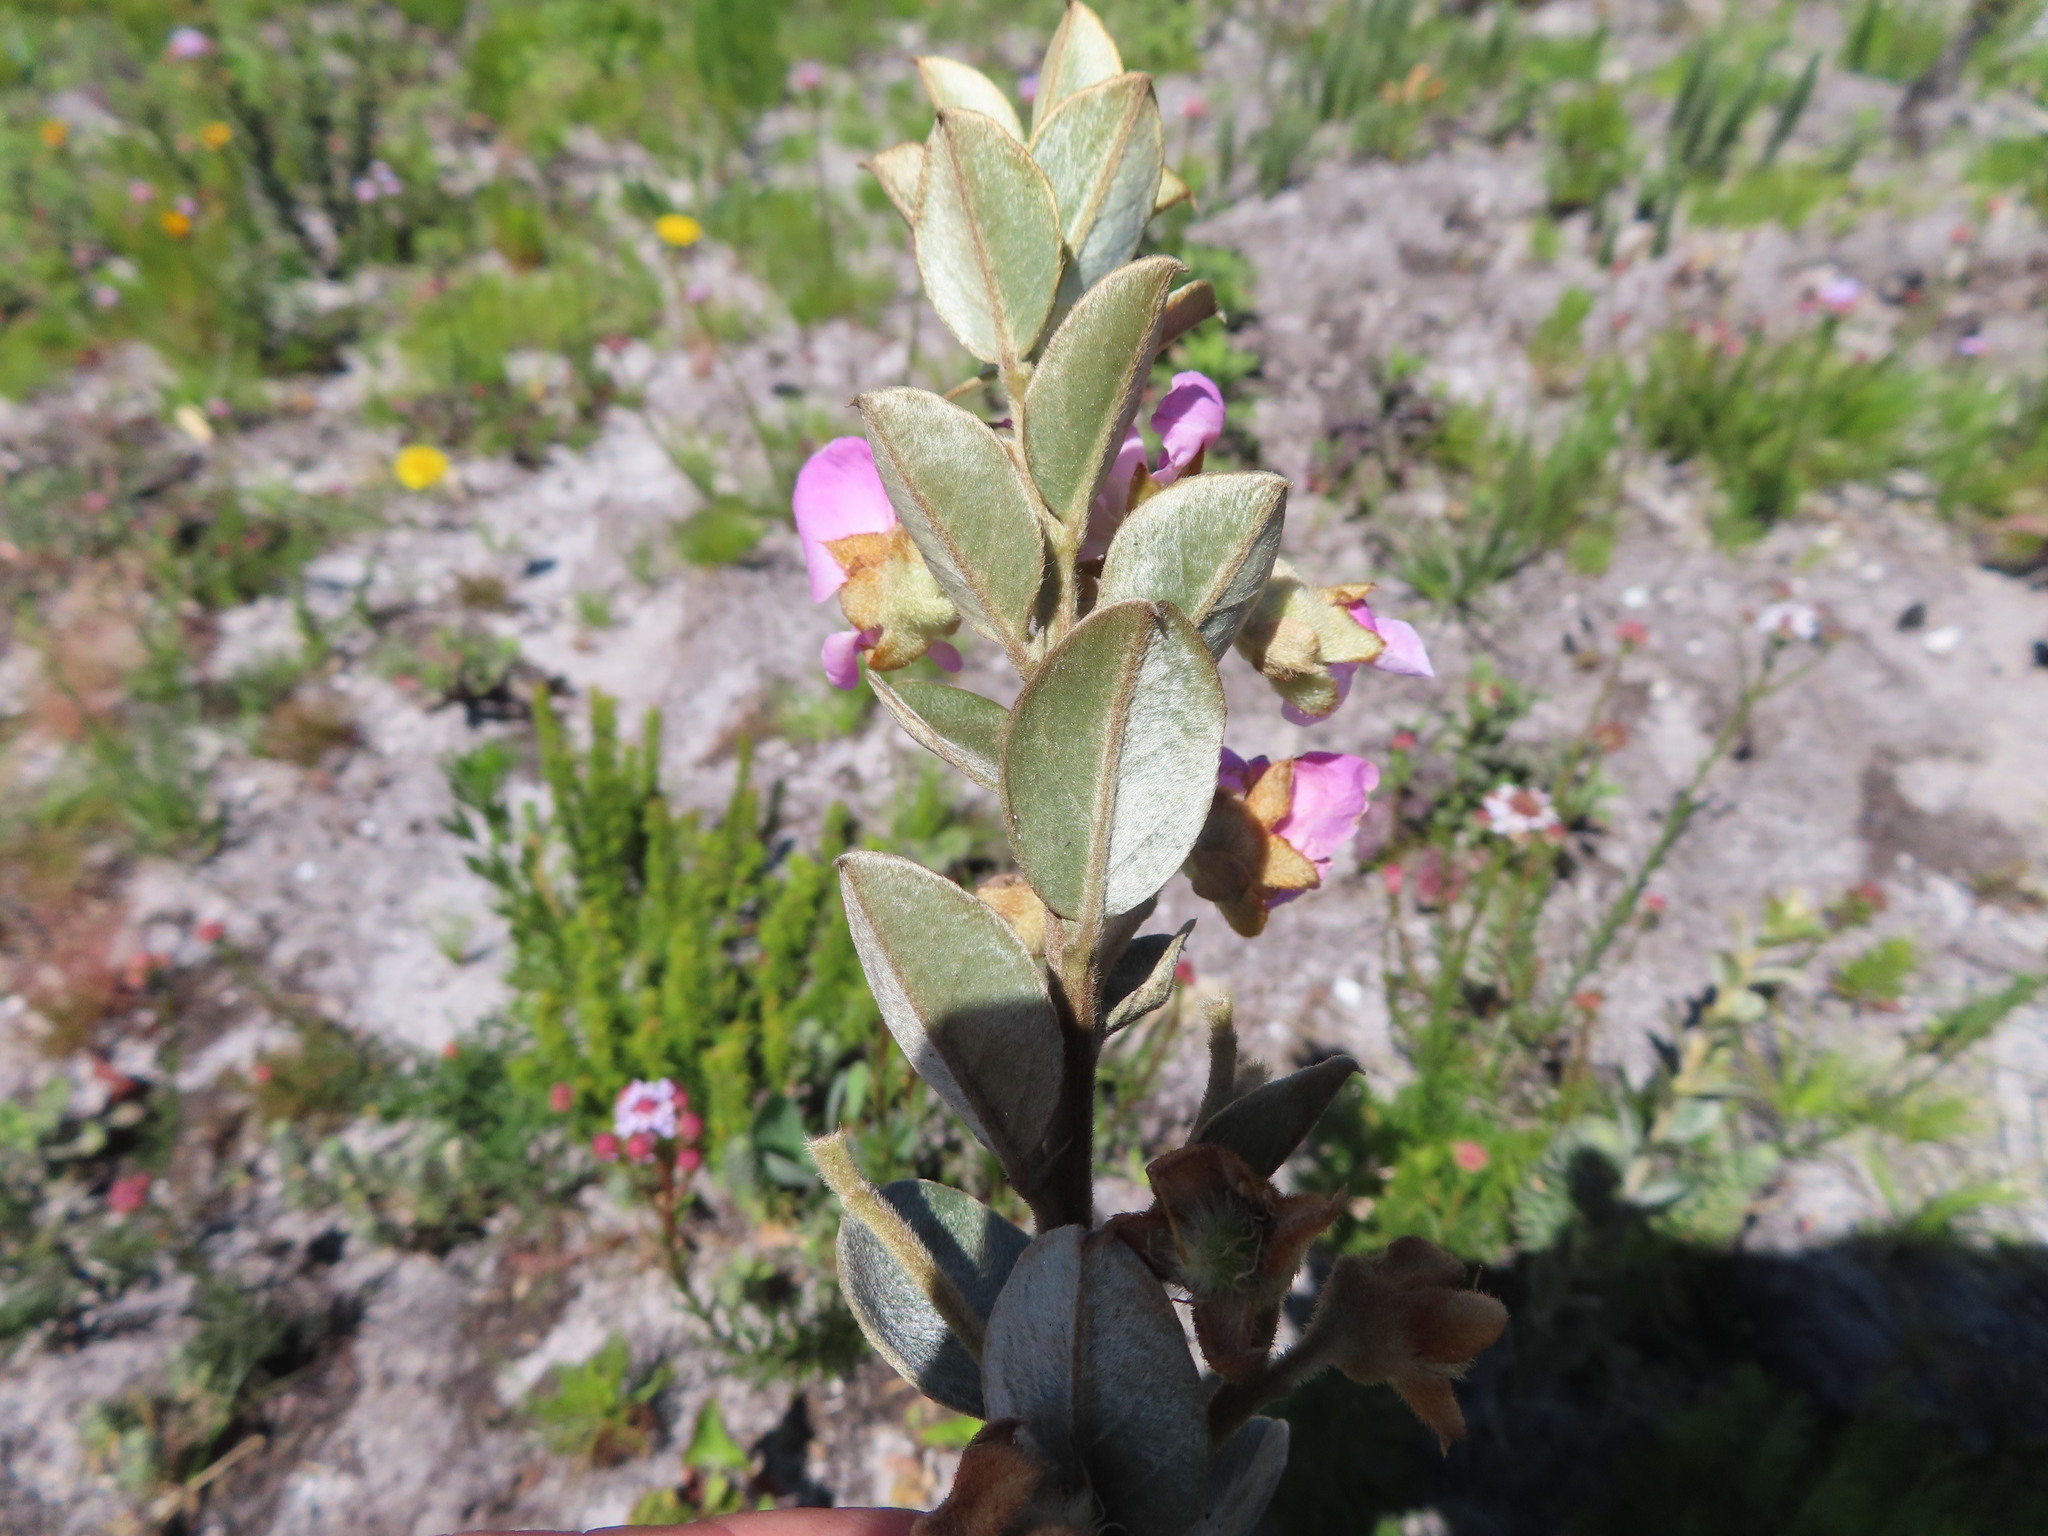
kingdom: Plantae
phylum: Tracheophyta
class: Magnoliopsida
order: Fabales
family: Fabaceae
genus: Podalyria
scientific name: Podalyria variabilis
